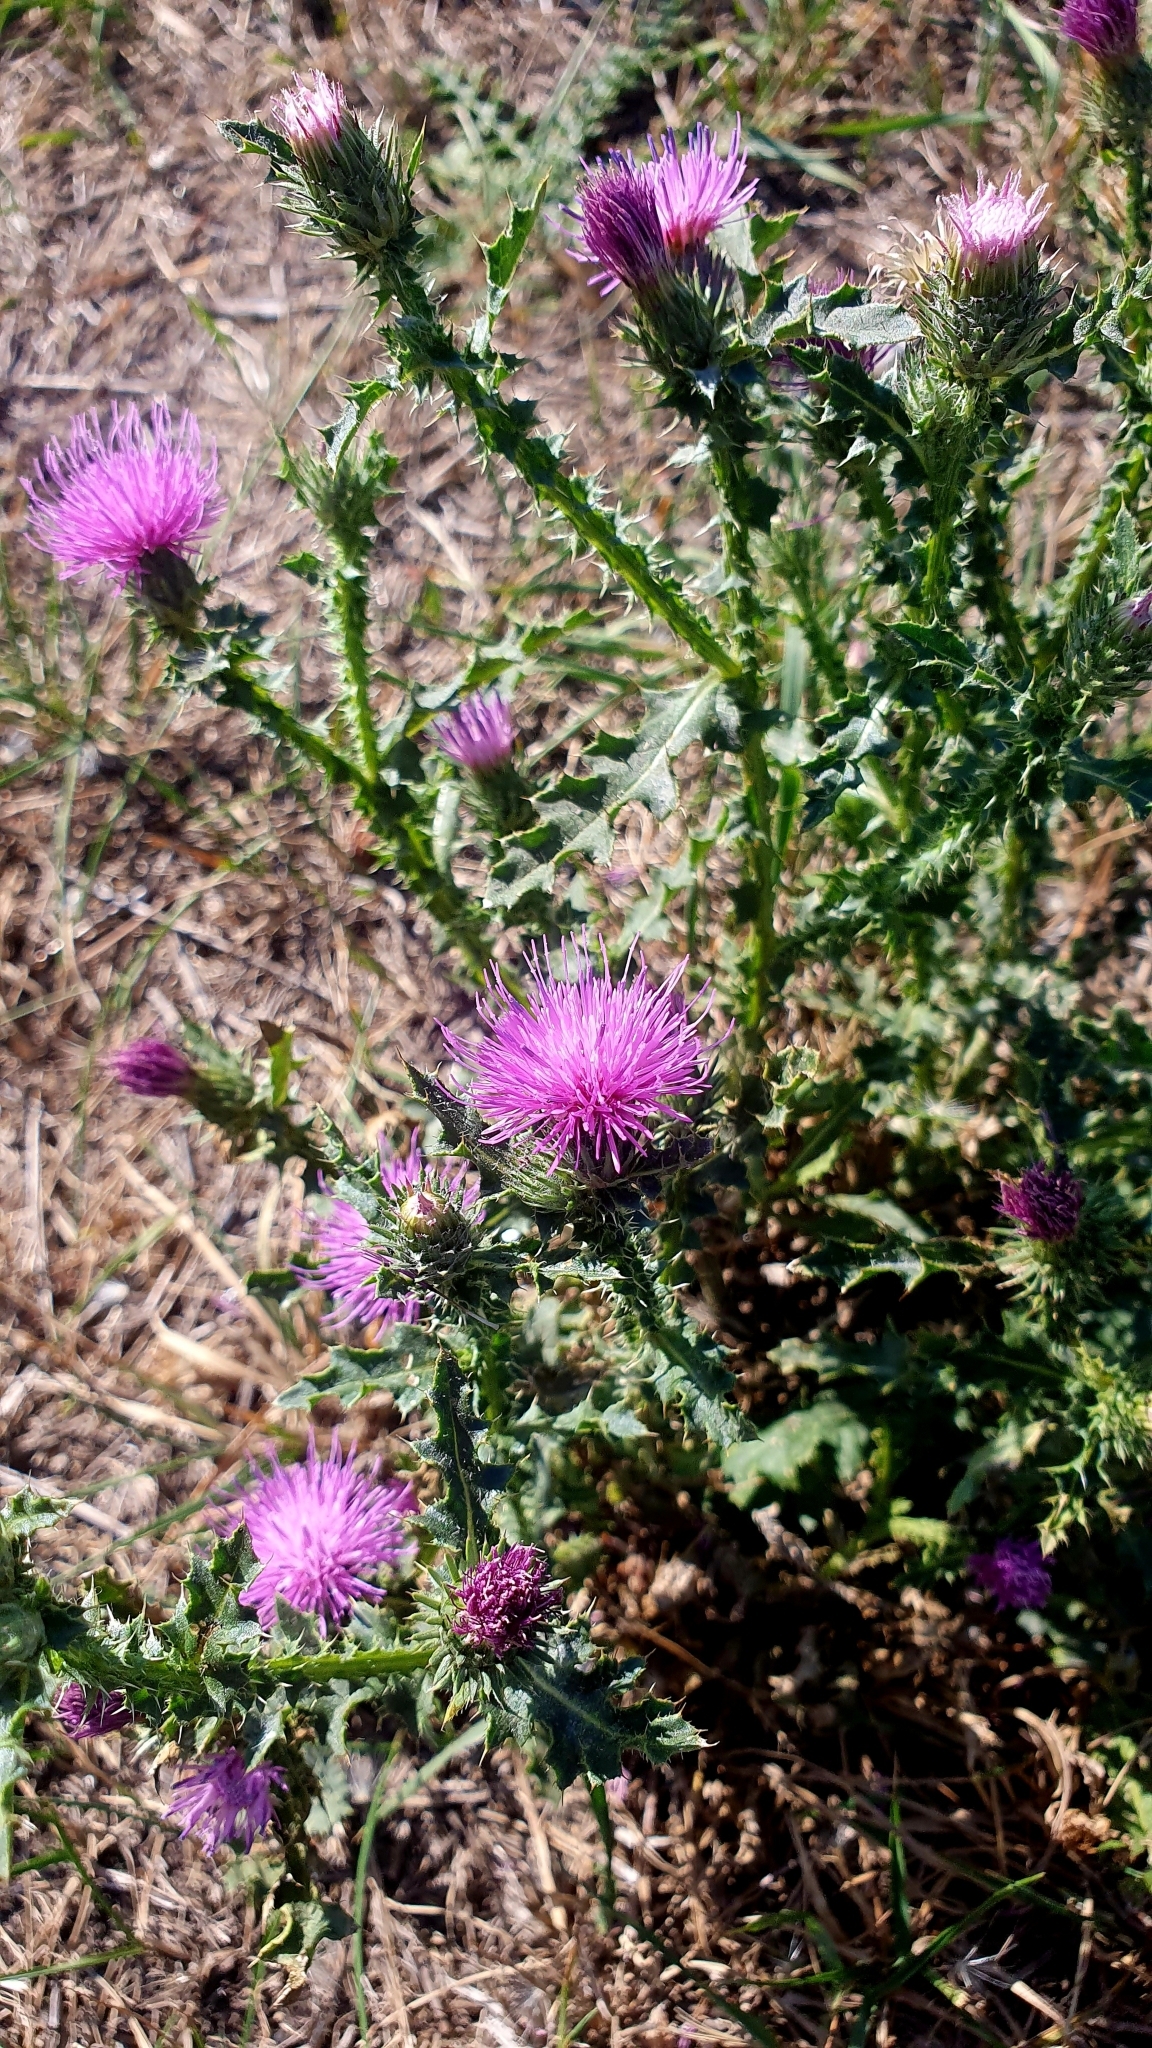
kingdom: Plantae
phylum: Tracheophyta
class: Magnoliopsida
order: Asterales
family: Asteraceae
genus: Carduus
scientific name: Carduus acanthoides
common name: Plumeless thistle
